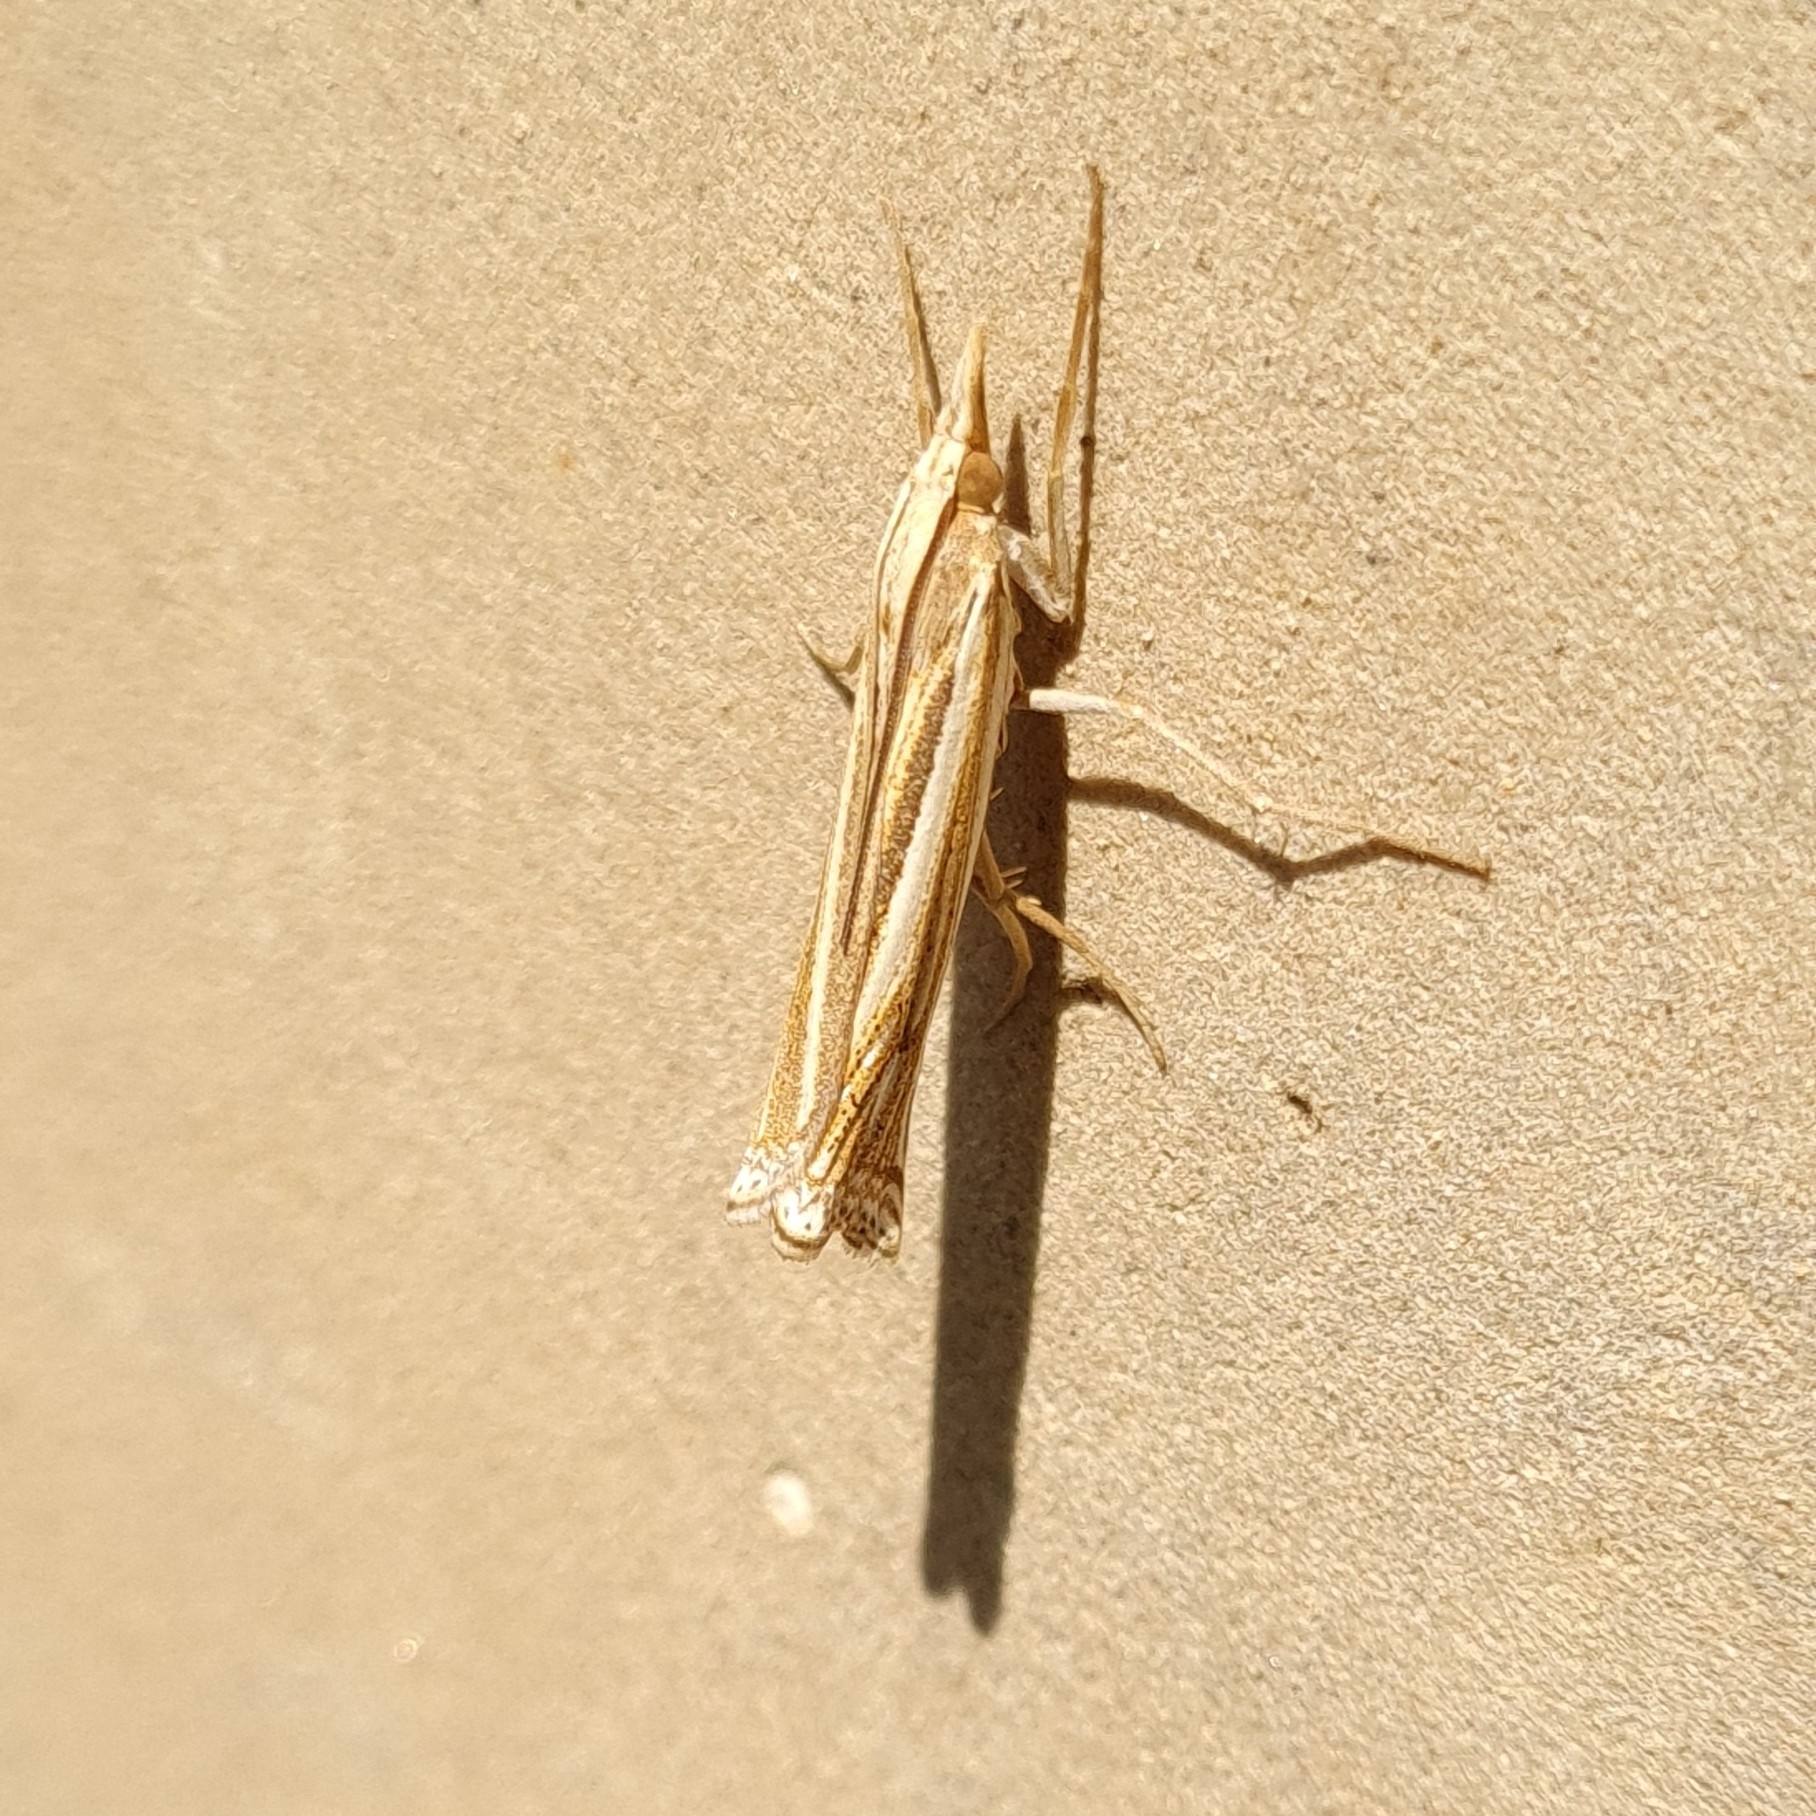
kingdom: Animalia
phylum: Arthropoda
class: Insecta
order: Lepidoptera
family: Crambidae
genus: Ancylolomia
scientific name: Ancylolomia tentaculella
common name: Scarce striped grass-veneer
